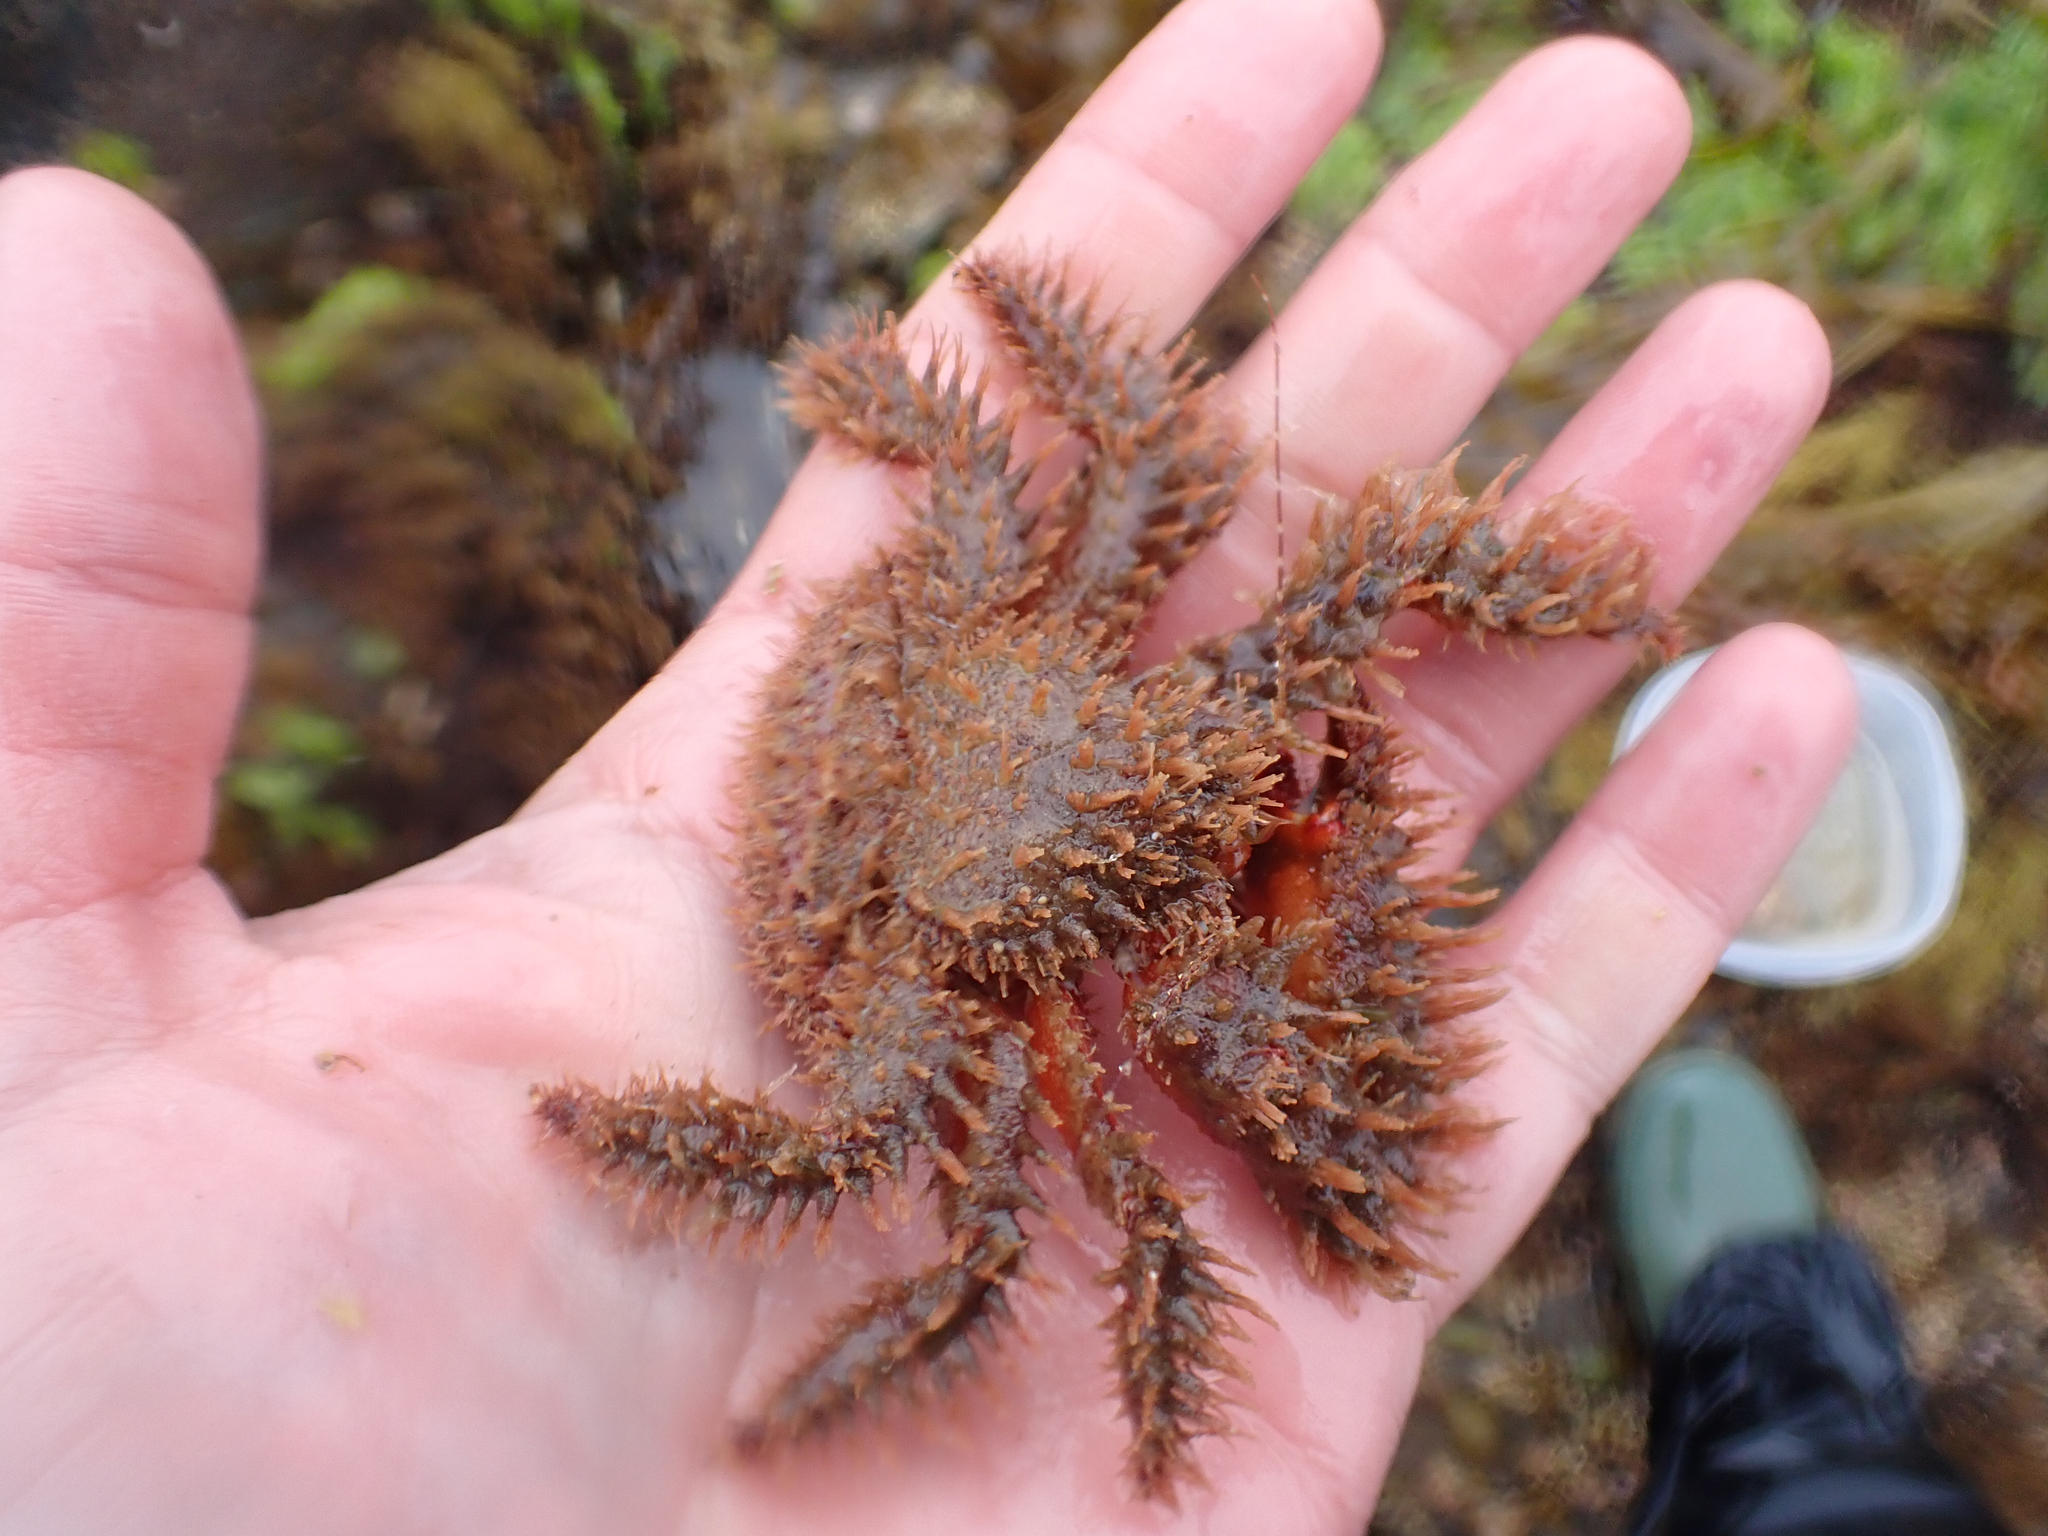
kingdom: Animalia
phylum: Arthropoda
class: Malacostraca
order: Decapoda
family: Hapalogastridae
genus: Hapalogaster
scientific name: Hapalogaster mertensii
